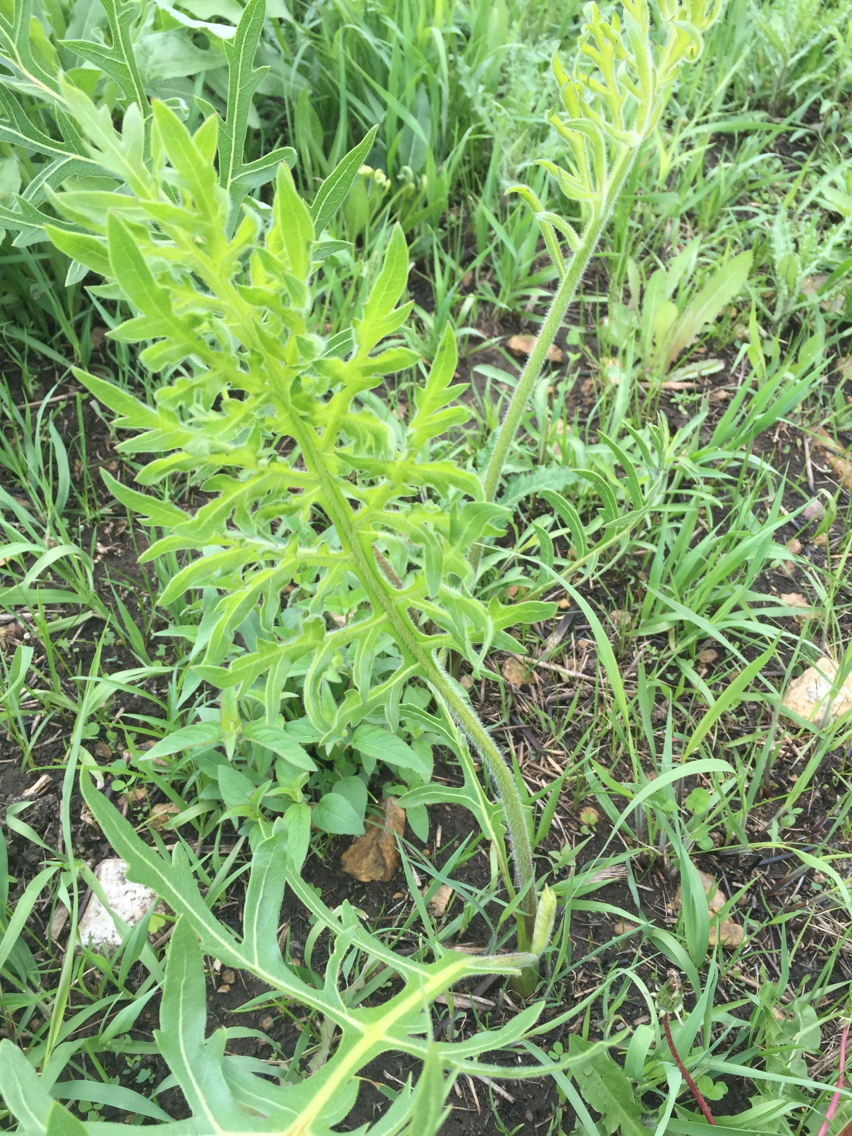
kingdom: Plantae
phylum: Tracheophyta
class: Magnoliopsida
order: Asterales
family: Asteraceae
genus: Silphium
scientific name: Silphium laciniatum
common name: Polarplant
